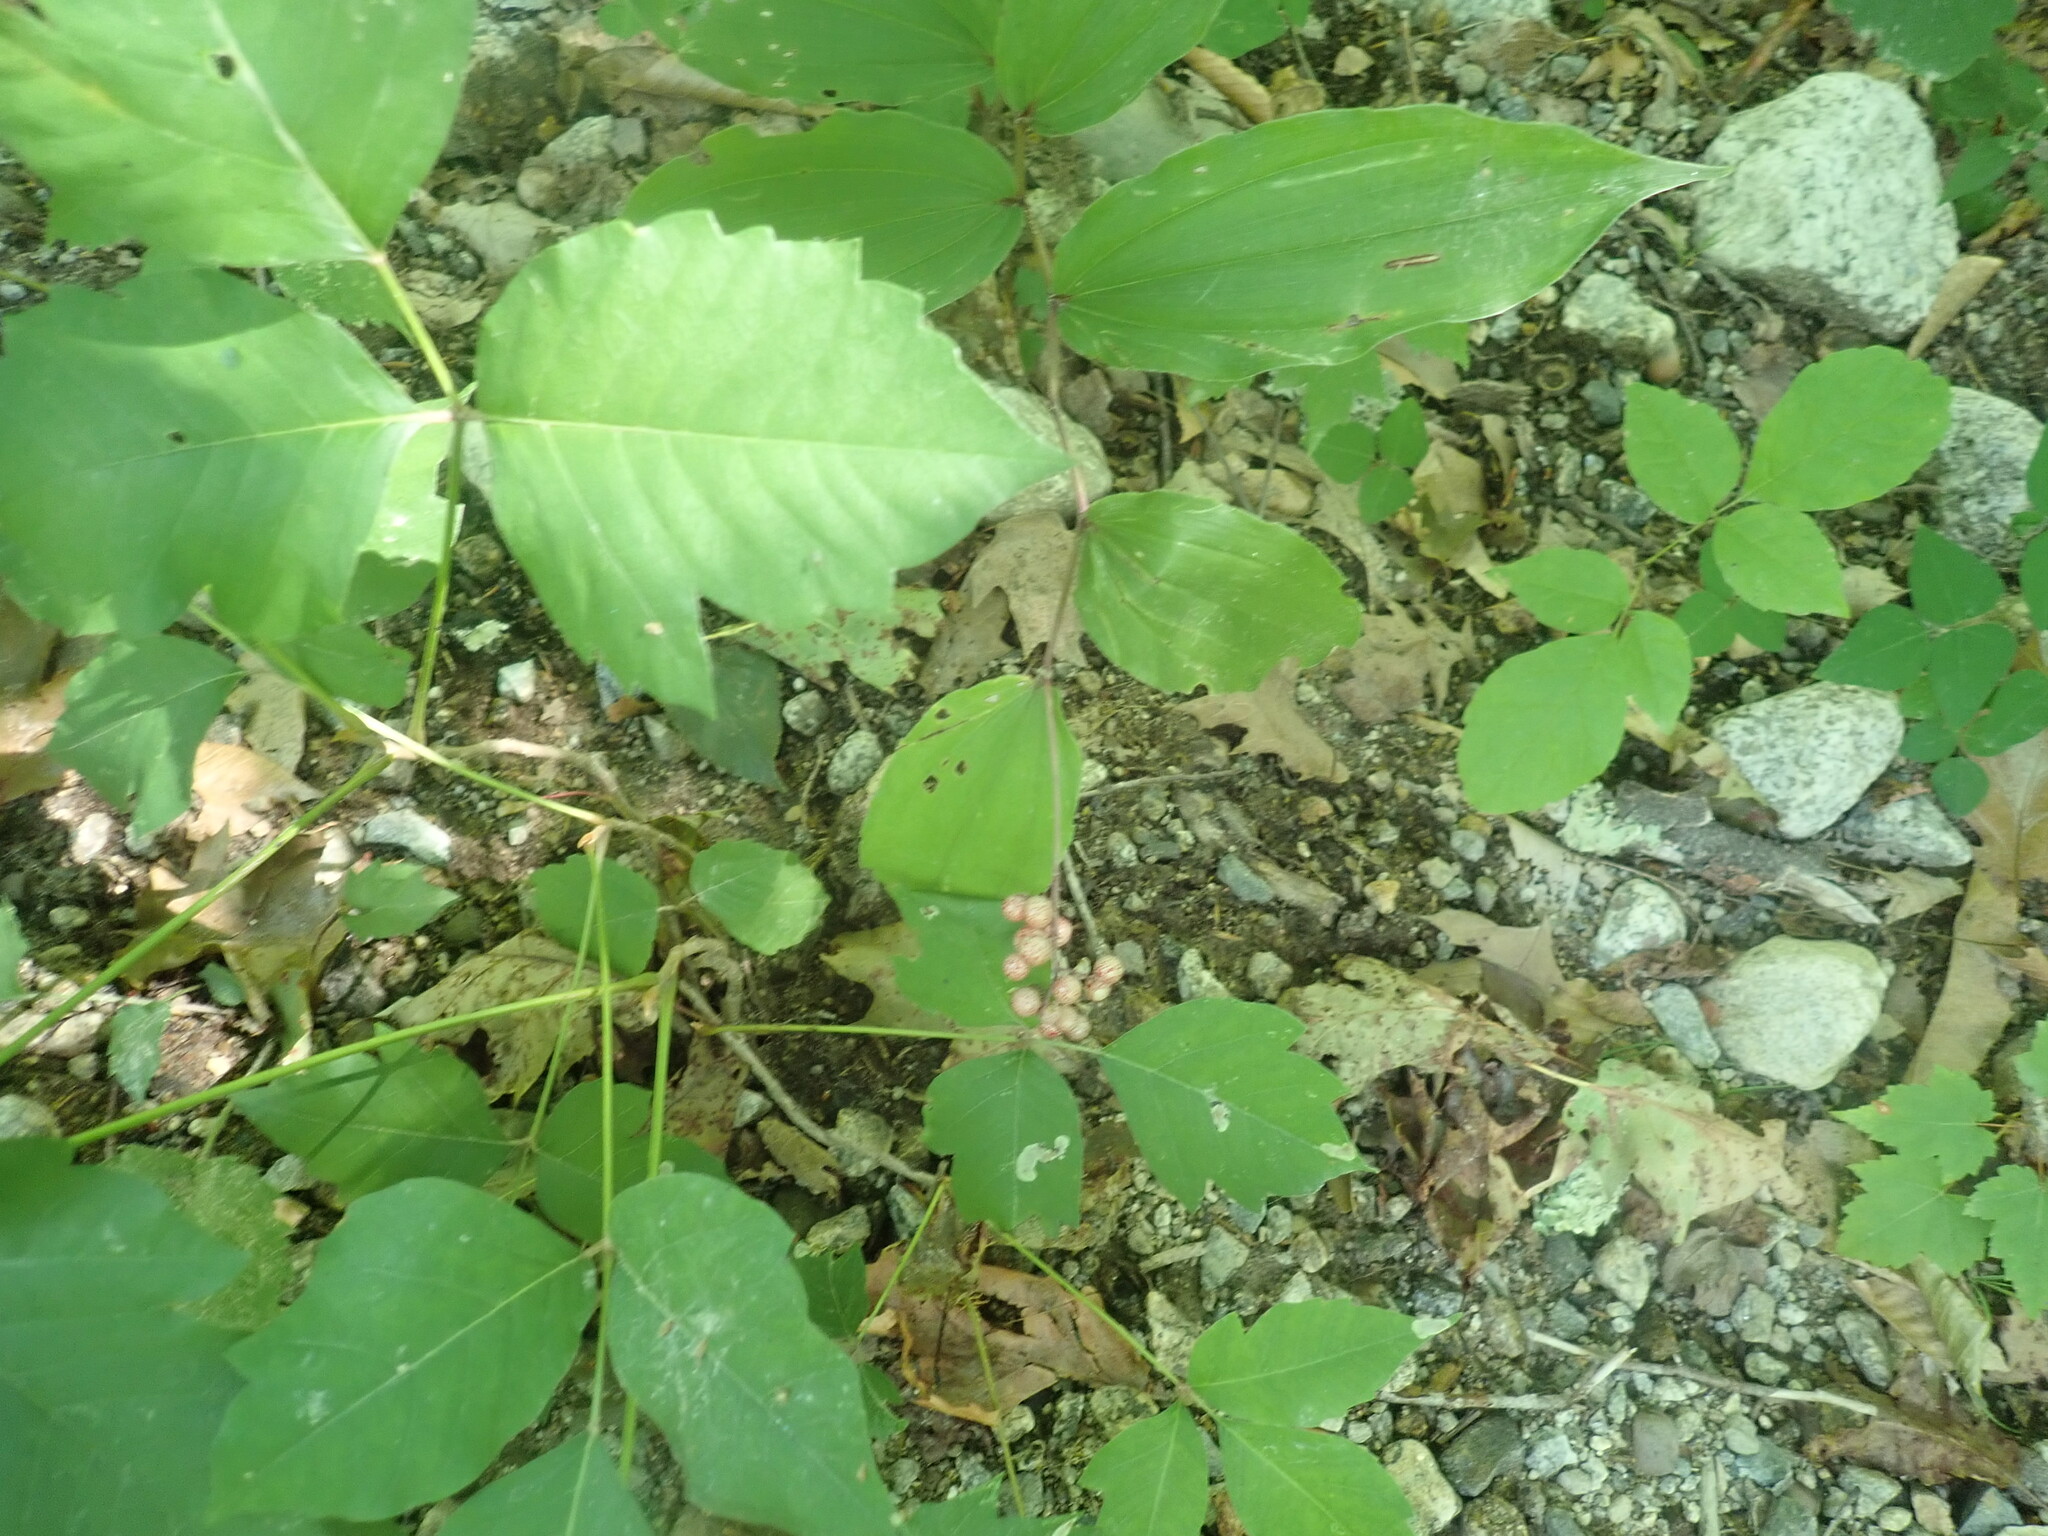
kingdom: Plantae
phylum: Tracheophyta
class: Liliopsida
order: Asparagales
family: Asparagaceae
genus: Maianthemum
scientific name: Maianthemum racemosum
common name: False spikenard
